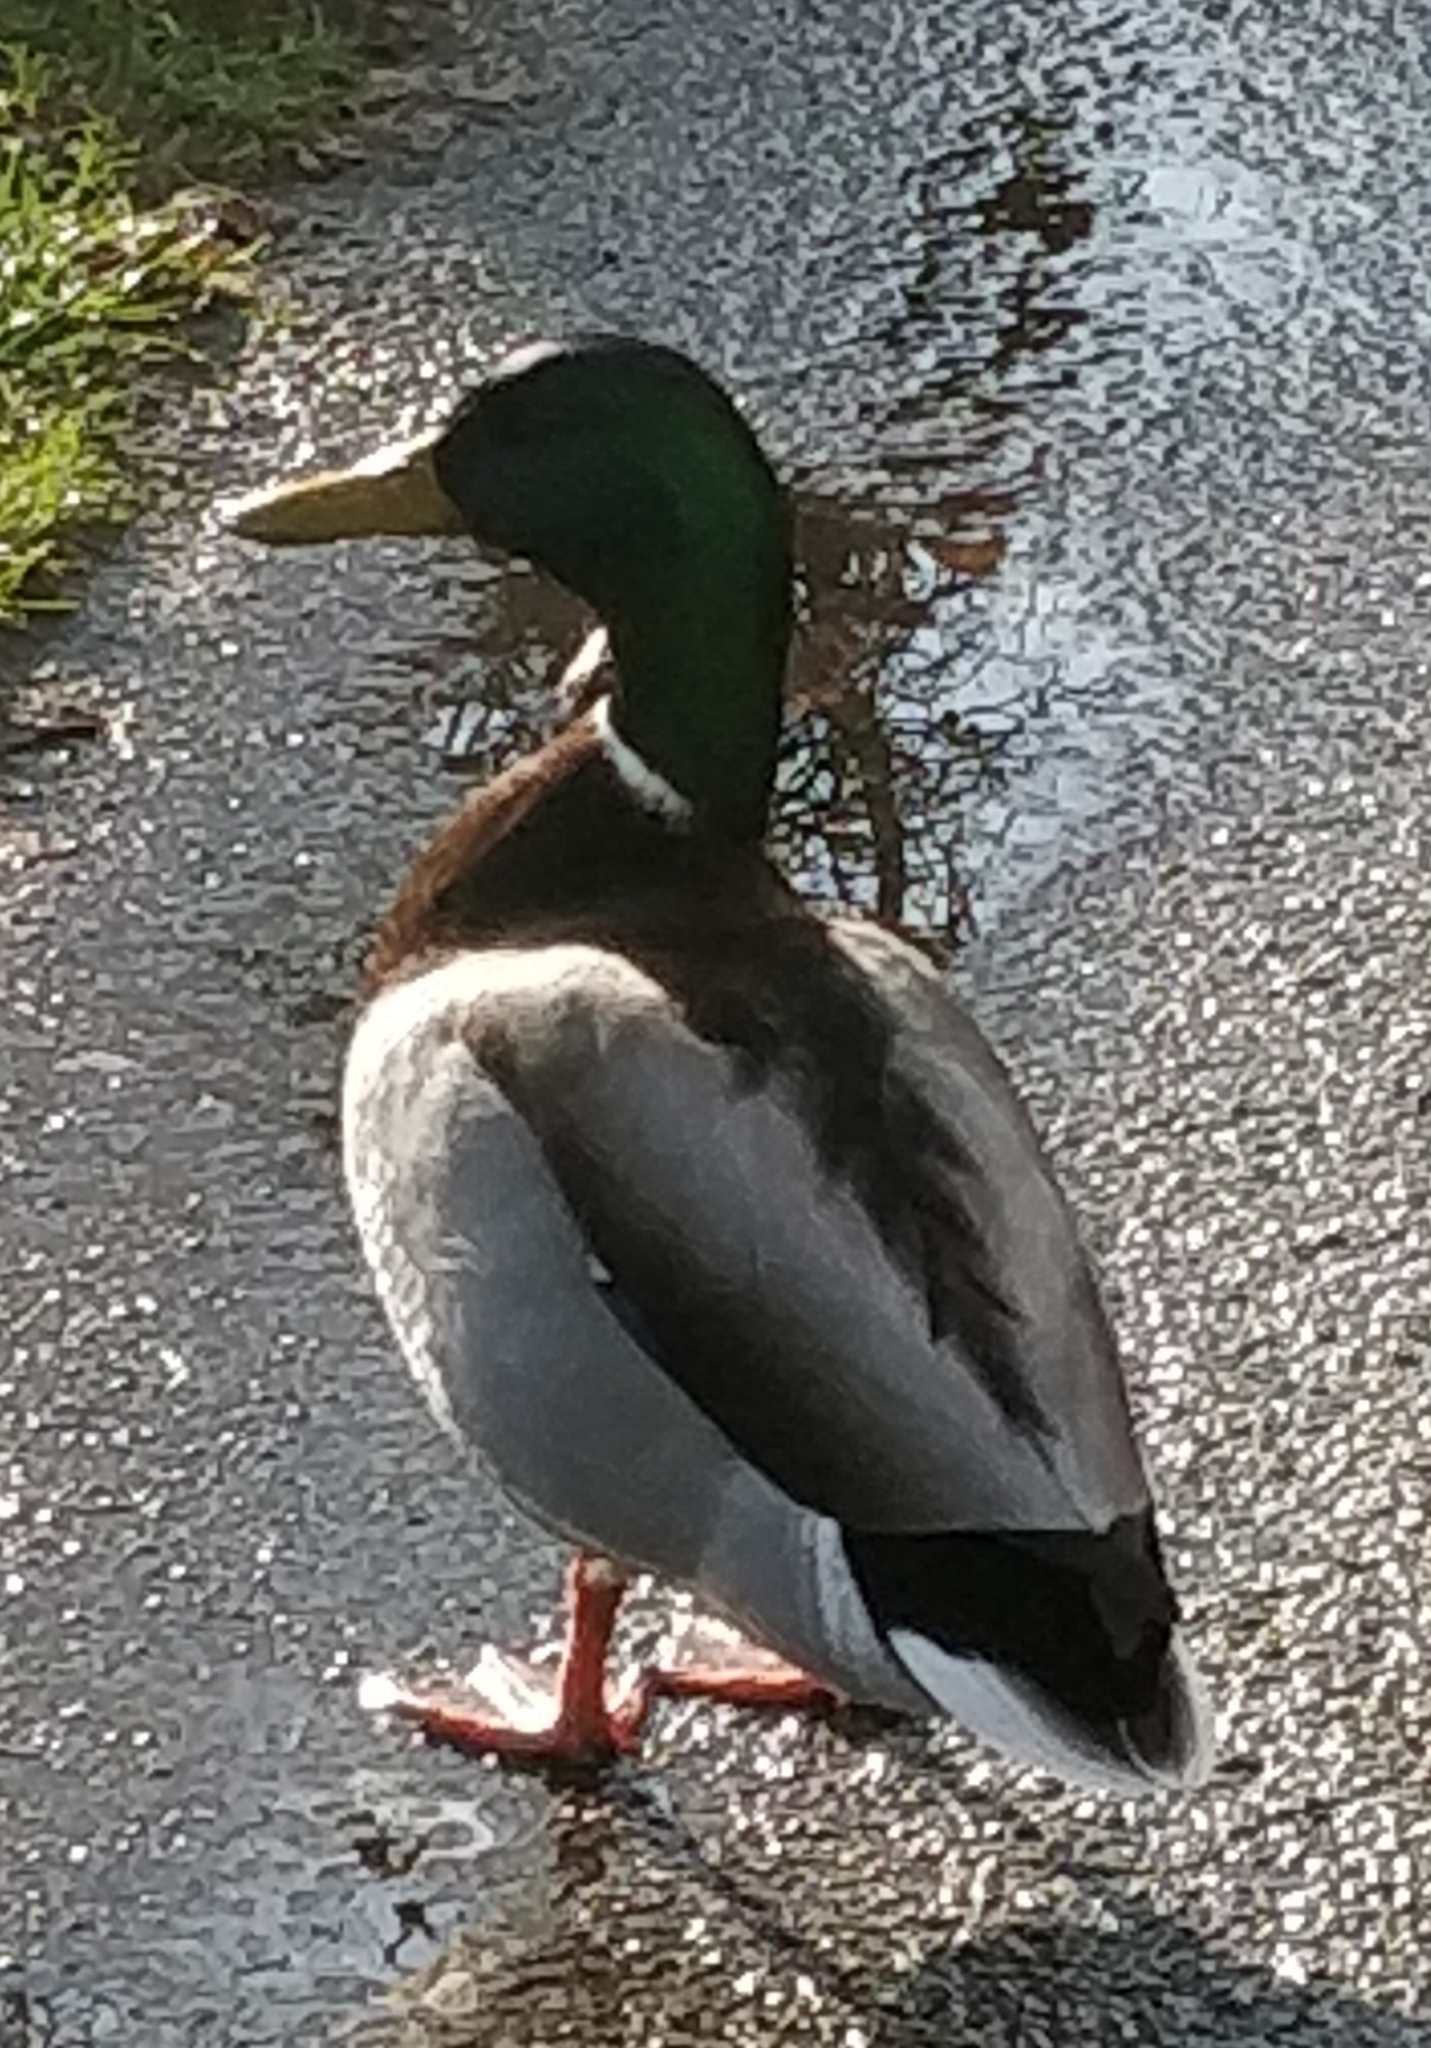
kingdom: Animalia
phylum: Chordata
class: Aves
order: Anseriformes
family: Anatidae
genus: Anas
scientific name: Anas platyrhynchos
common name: Mallard
